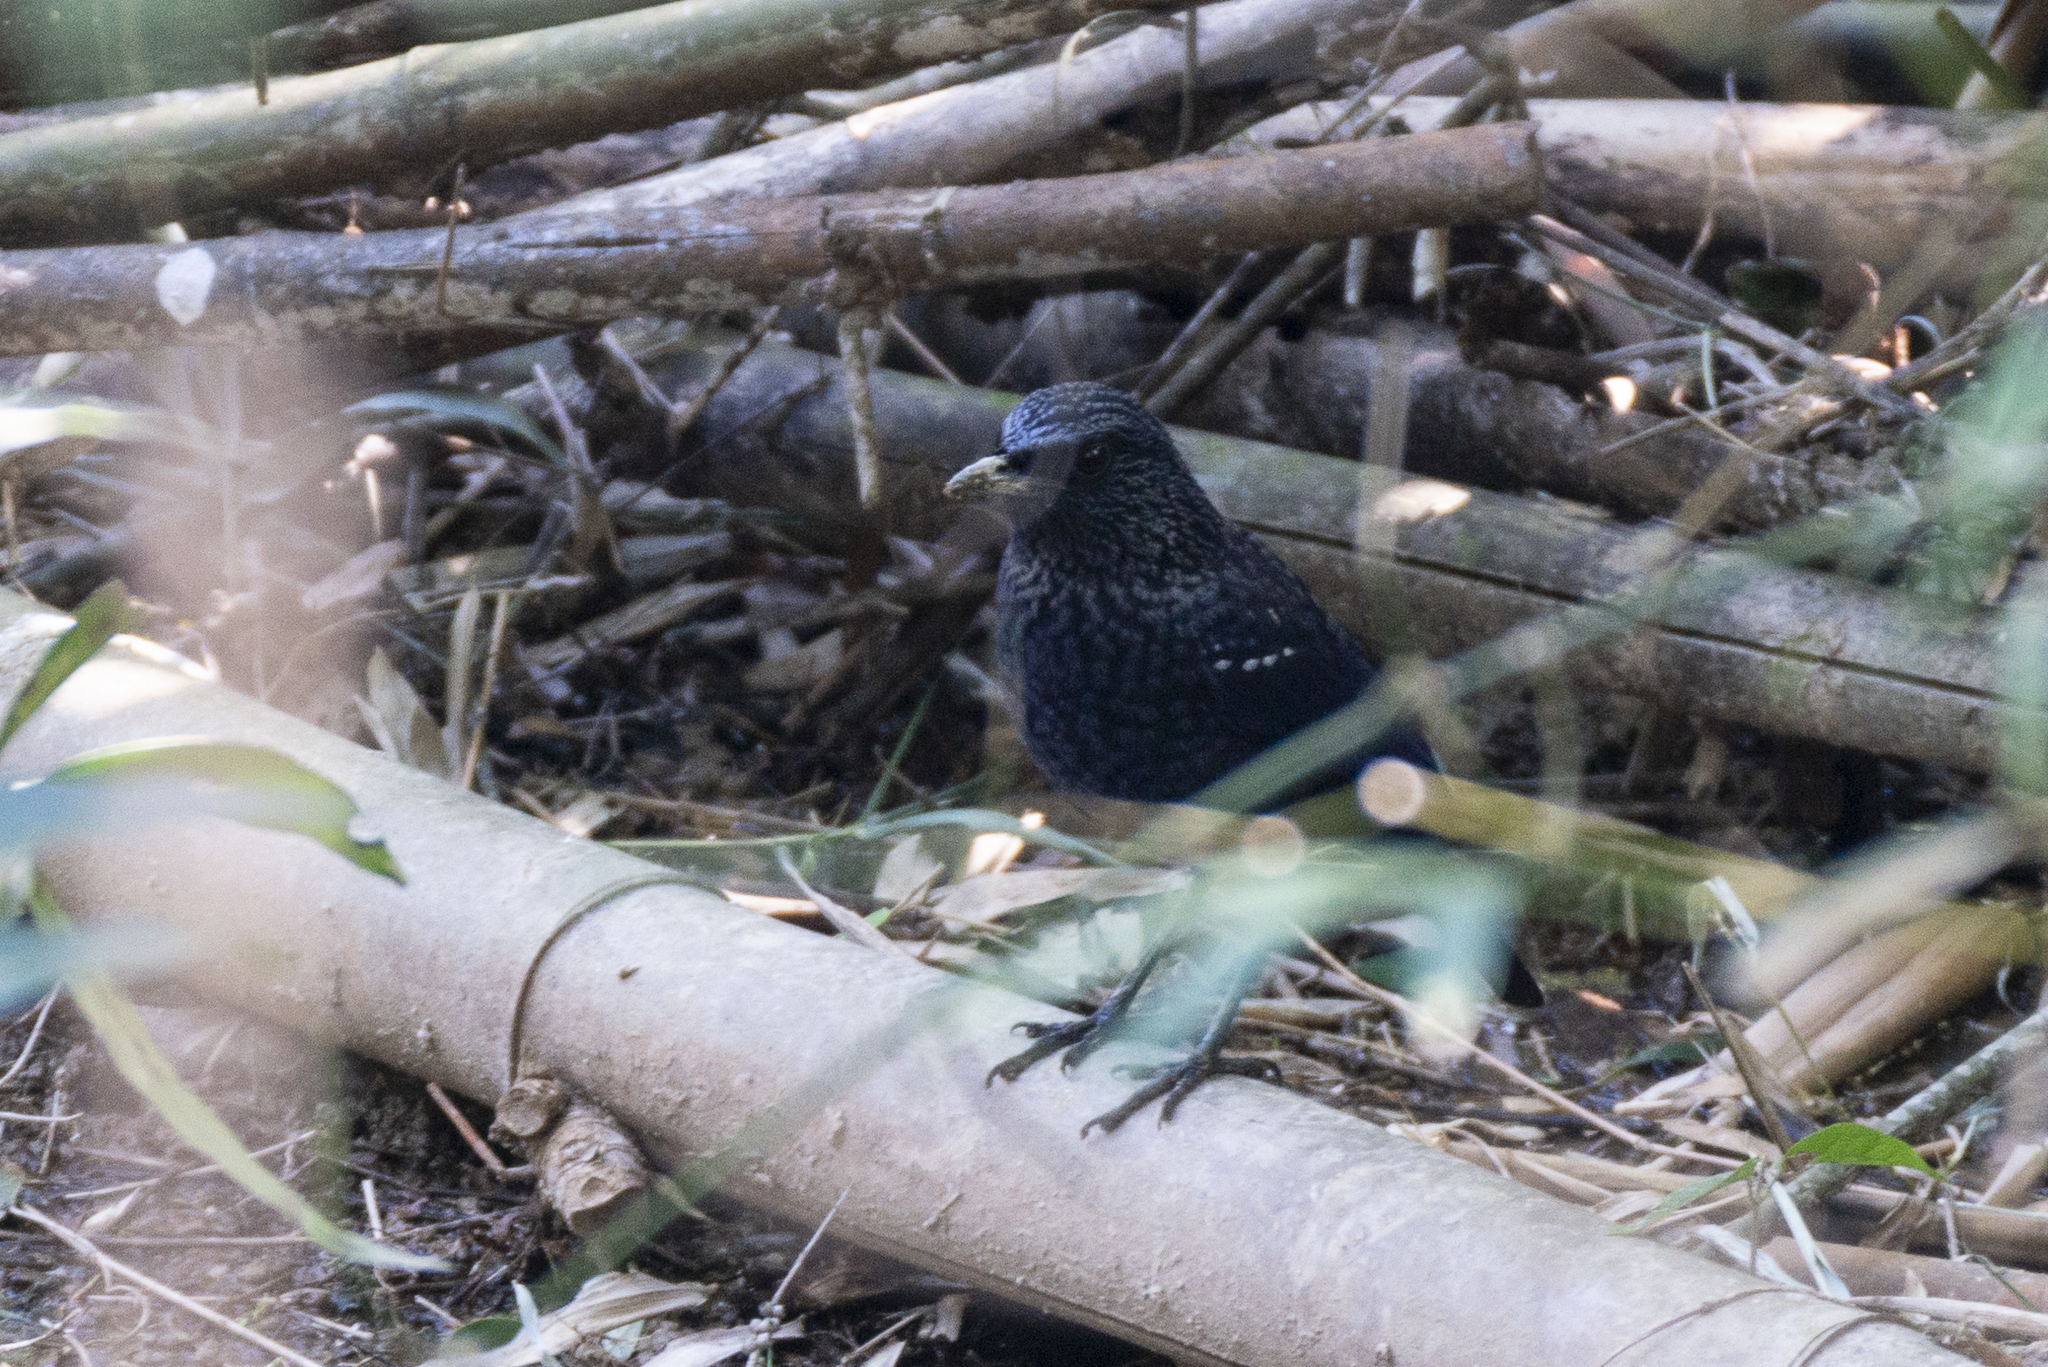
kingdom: Animalia
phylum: Chordata
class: Aves
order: Passeriformes
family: Muscicapidae
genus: Myophonus
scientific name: Myophonus caeruleus
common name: Blue whistling-thrush
